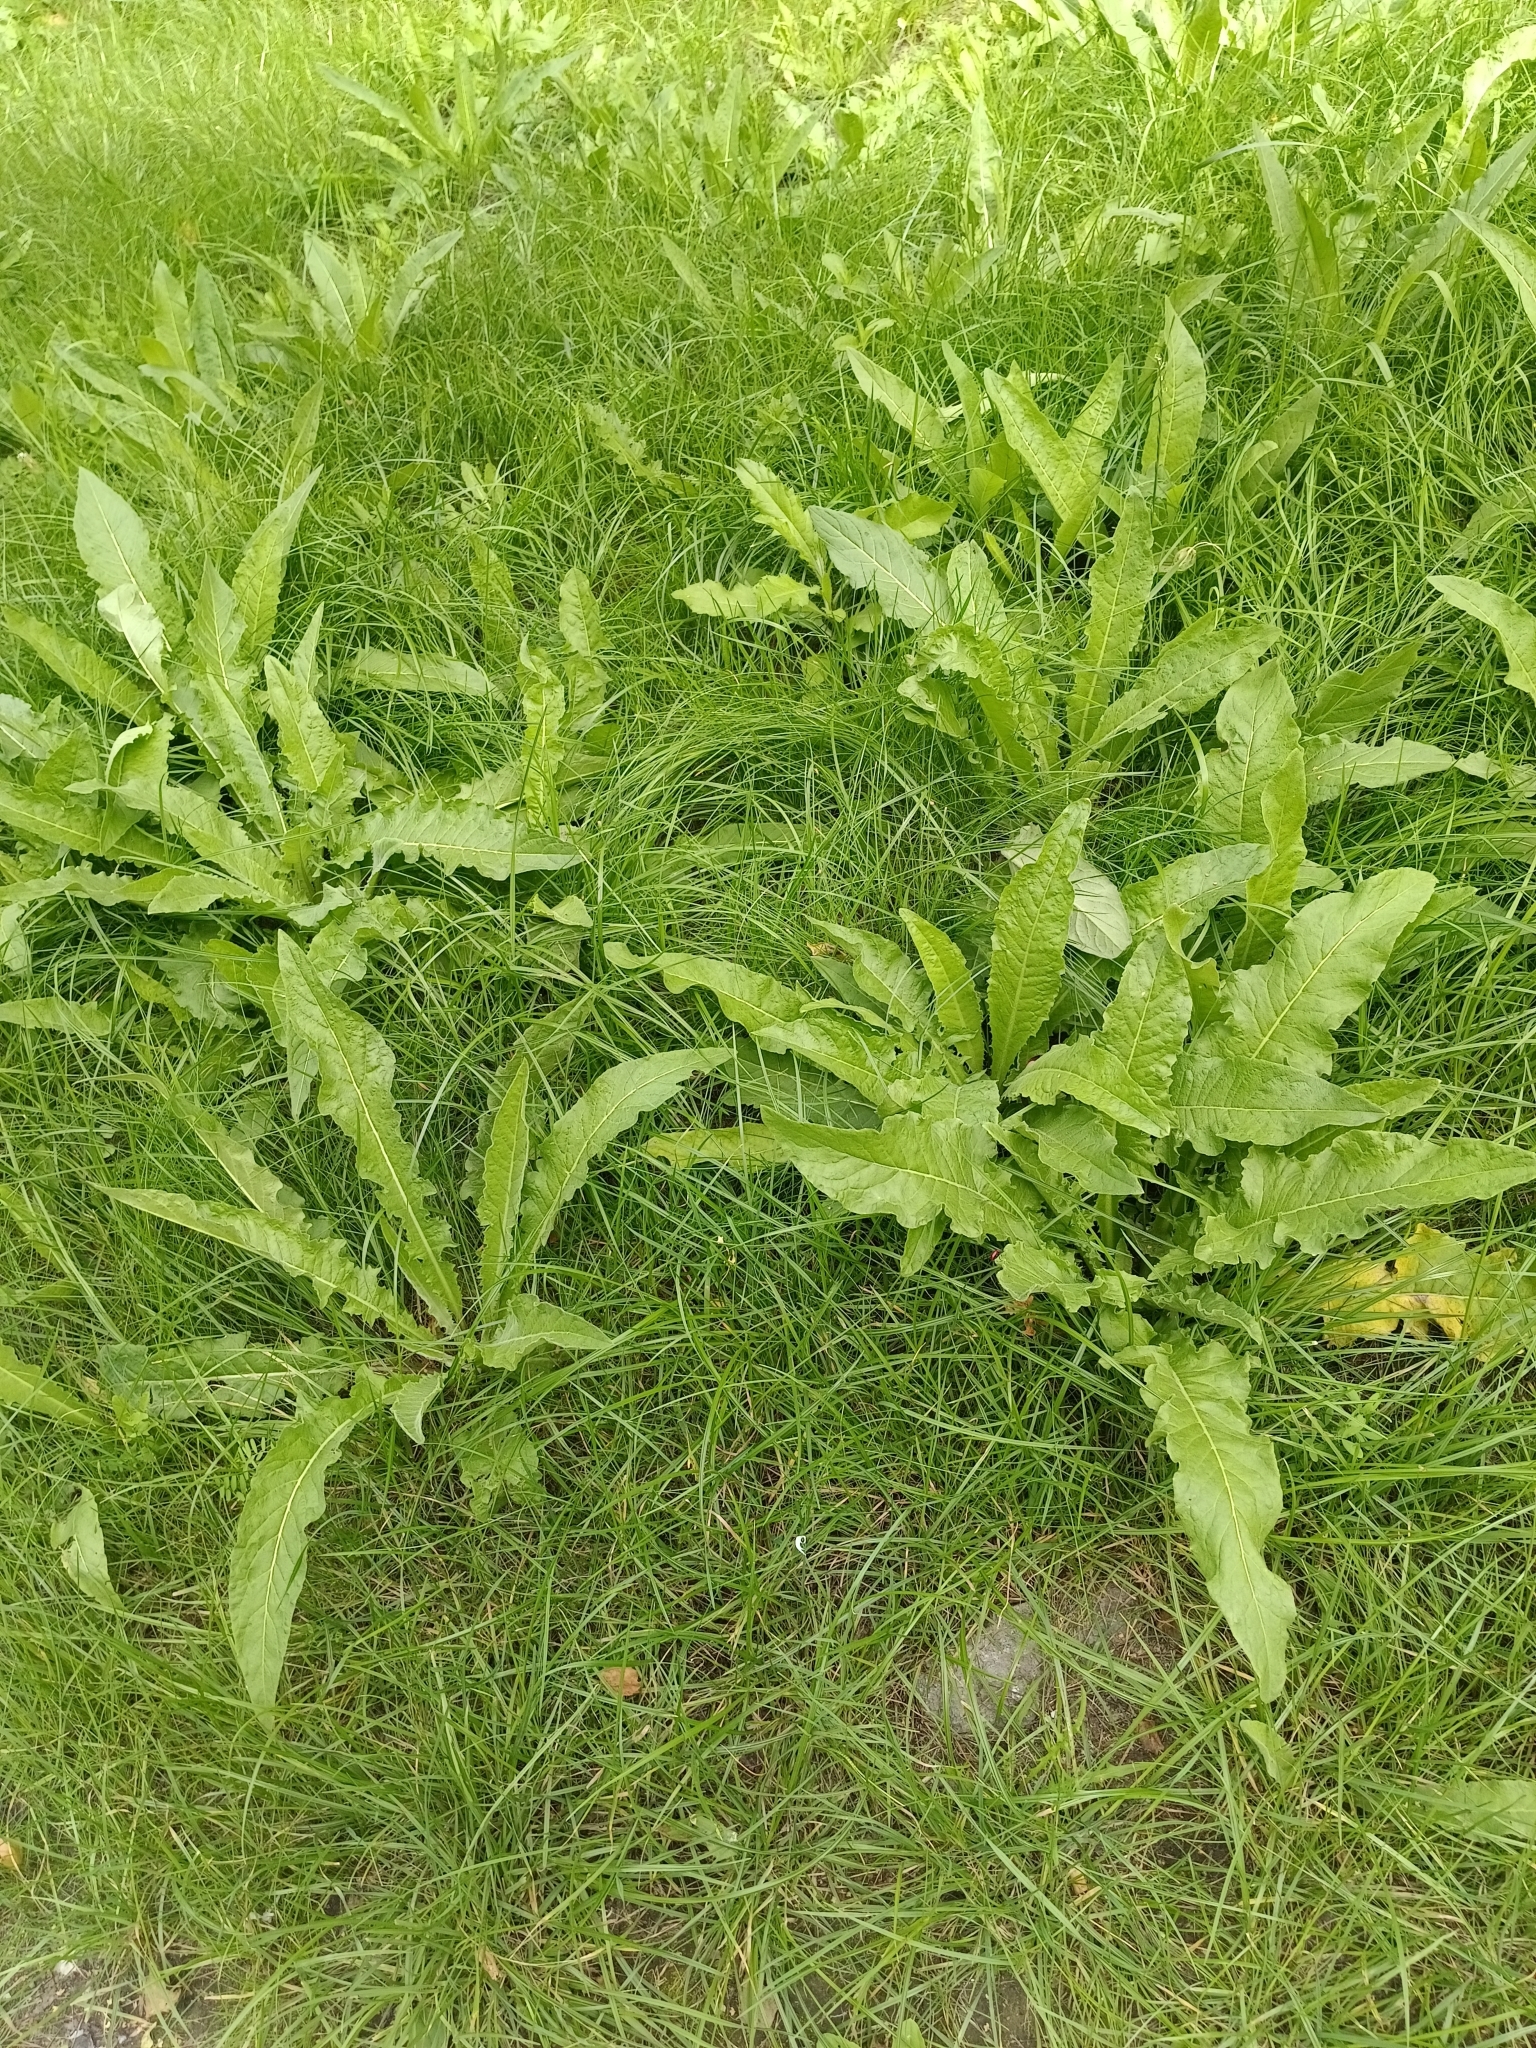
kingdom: Plantae
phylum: Tracheophyta
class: Magnoliopsida
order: Brassicales
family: Brassicaceae
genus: Bunias
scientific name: Bunias orientalis
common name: Warty-cabbage
